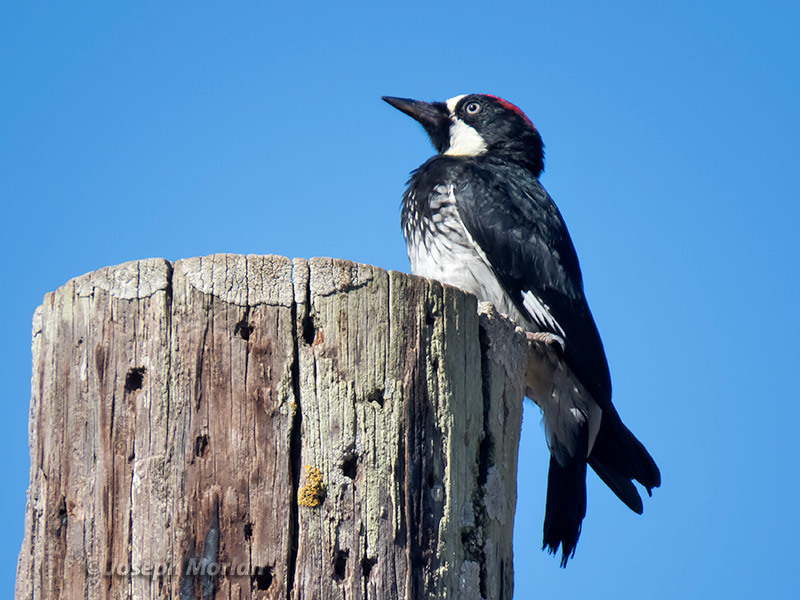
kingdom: Animalia
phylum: Chordata
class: Aves
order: Piciformes
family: Picidae
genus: Melanerpes
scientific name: Melanerpes formicivorus
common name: Acorn woodpecker
